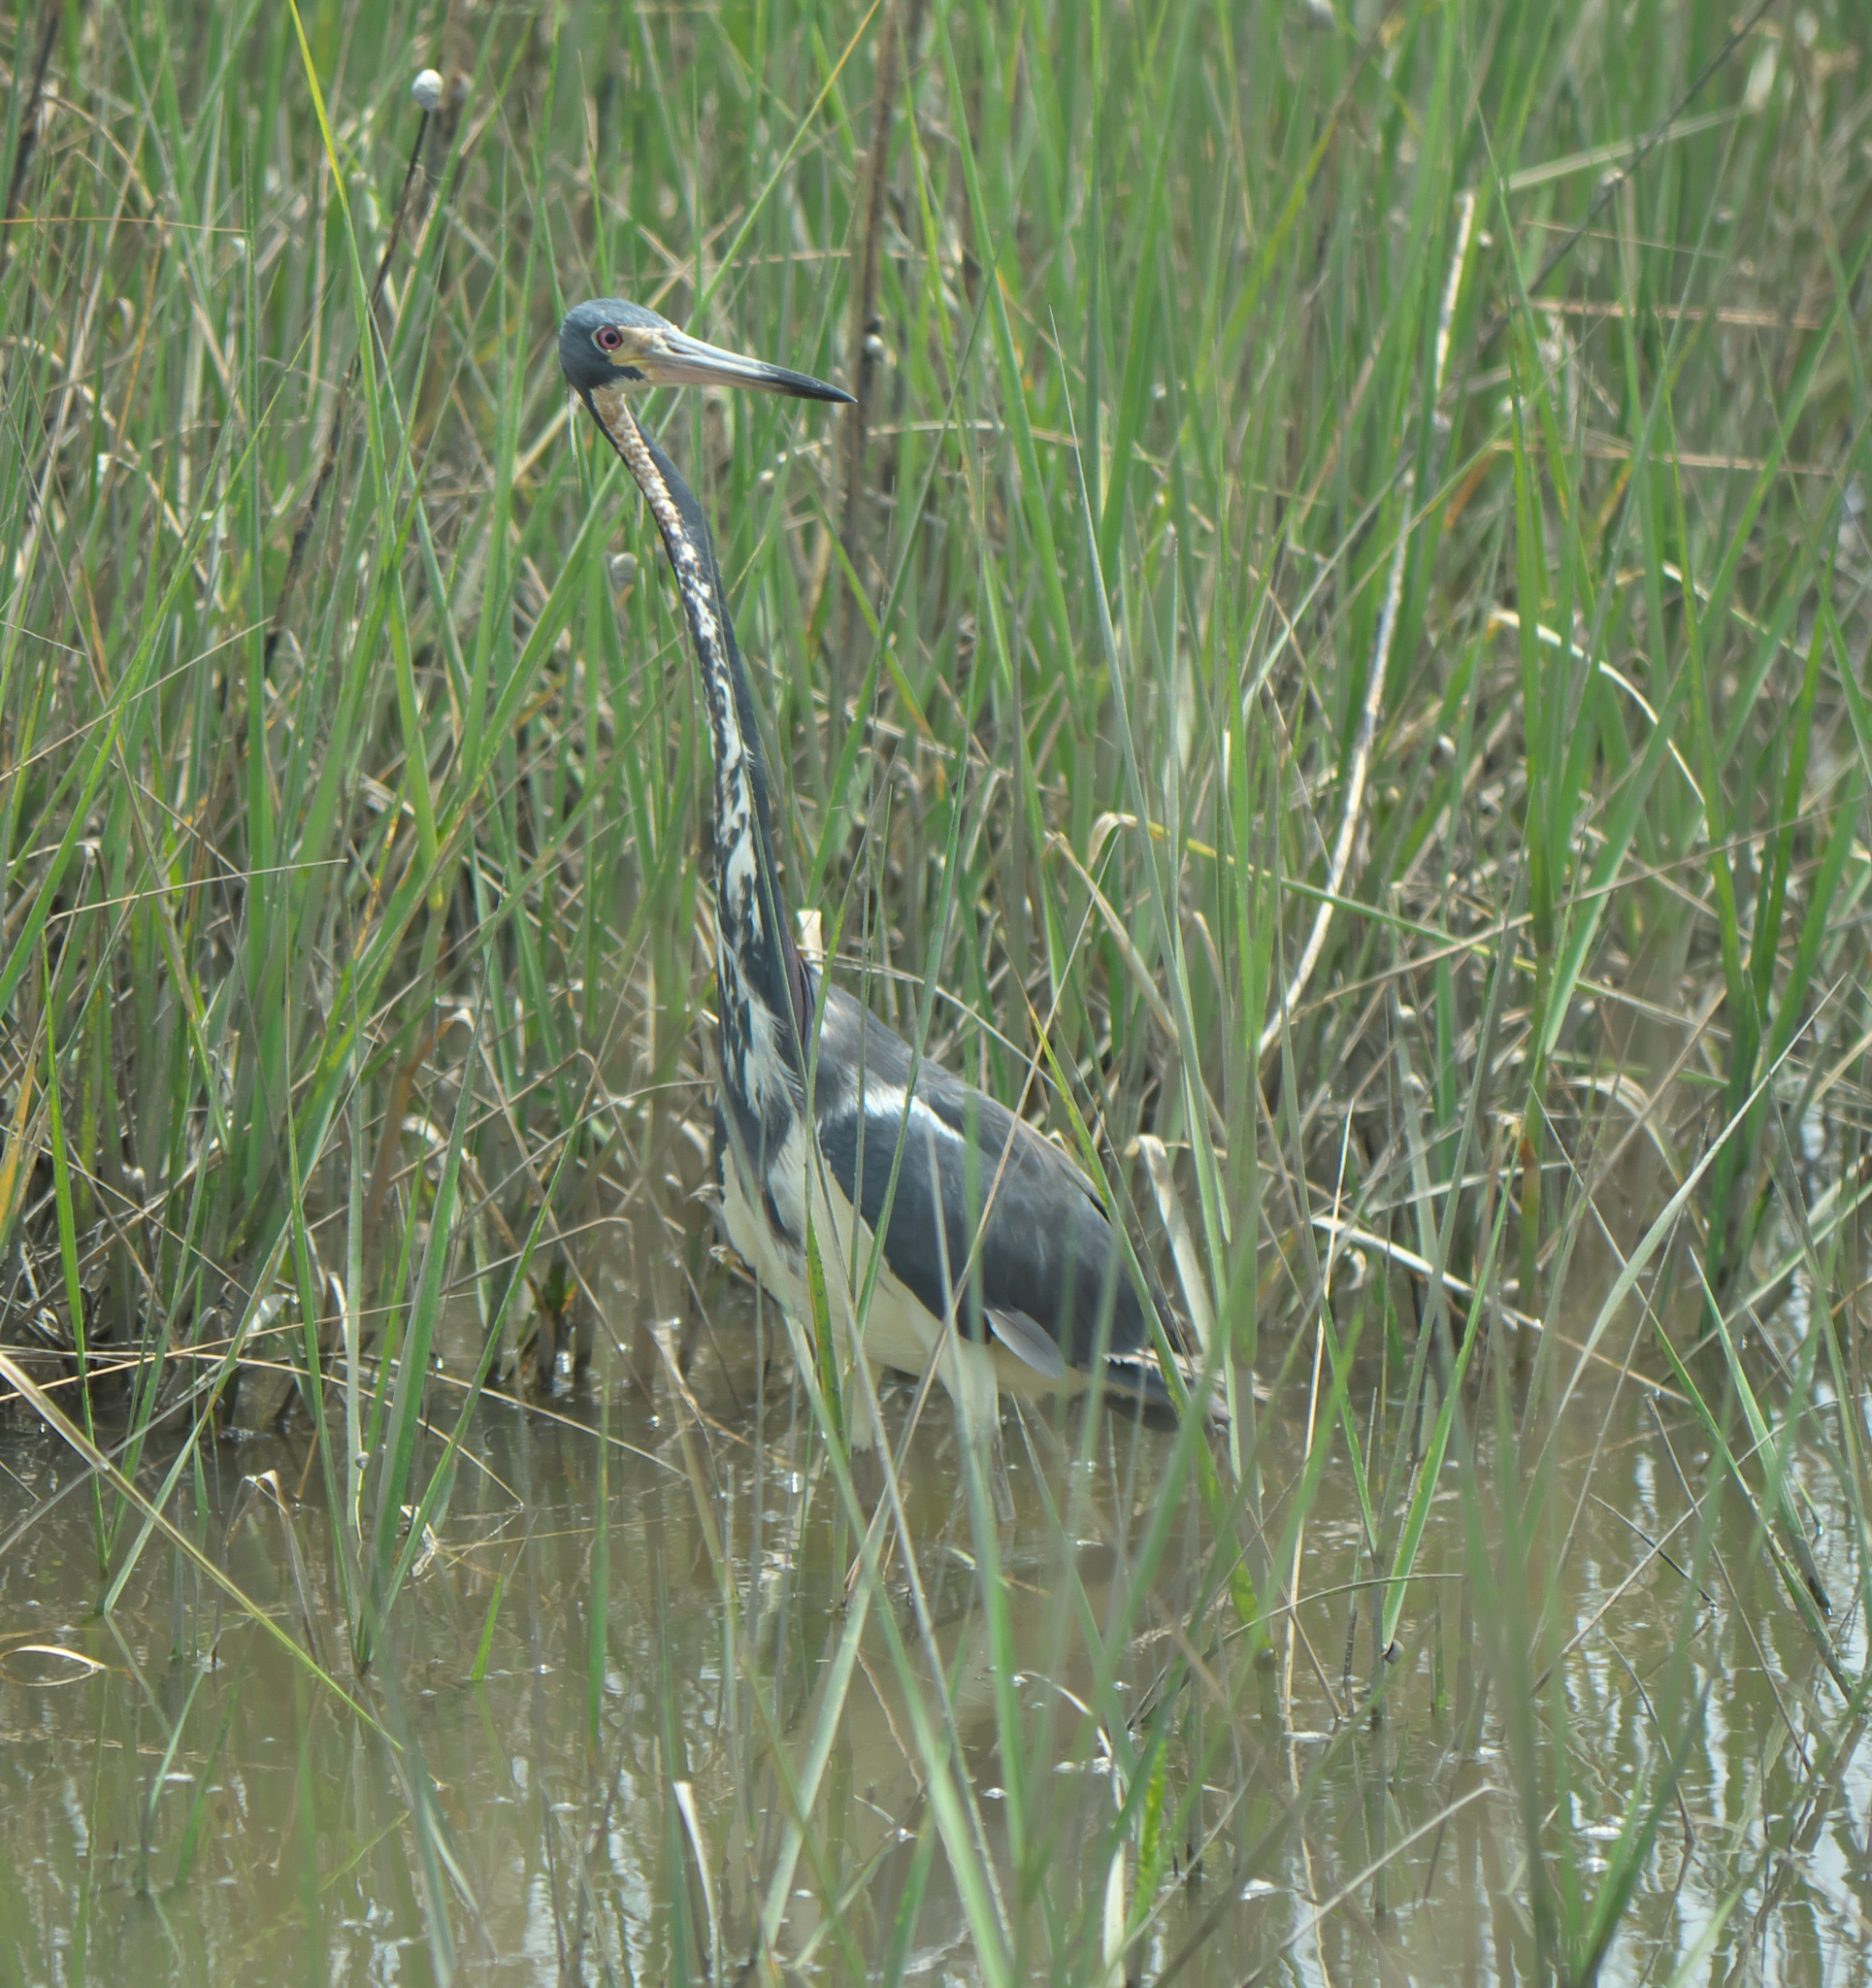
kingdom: Animalia
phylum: Chordata
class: Aves
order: Pelecaniformes
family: Ardeidae
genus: Egretta
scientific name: Egretta tricolor
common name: Tricolored heron
